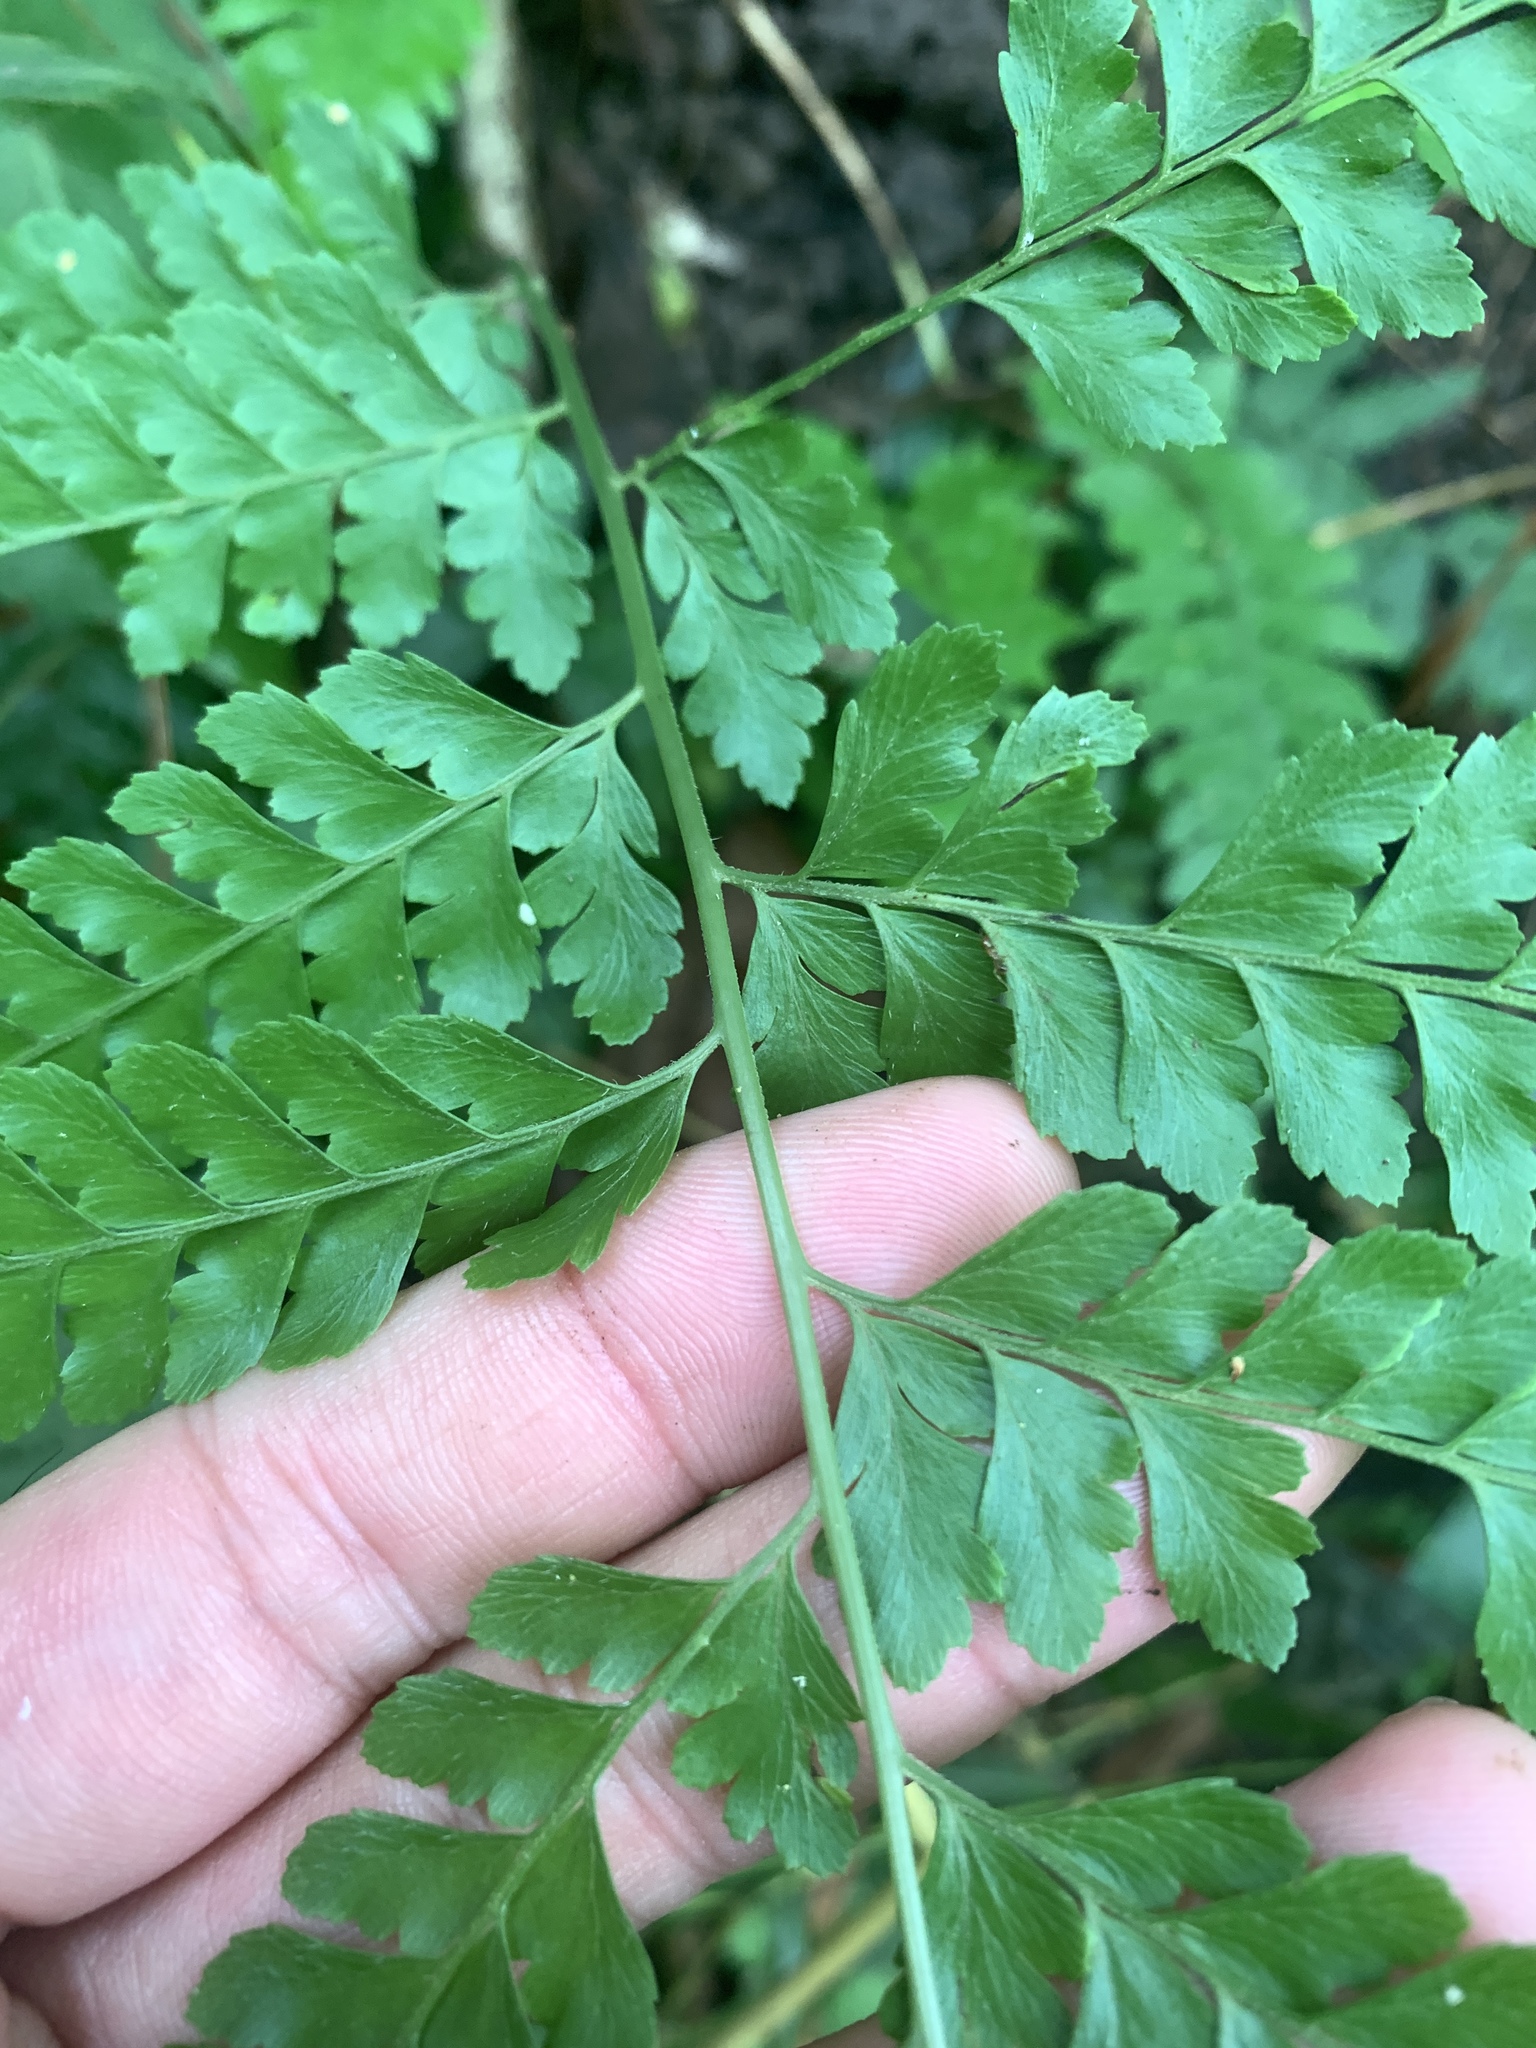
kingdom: Plantae
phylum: Tracheophyta
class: Polypodiopsida
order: Polypodiales
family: Dennstaedtiaceae
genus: Microlepia
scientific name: Microlepia strigosa
